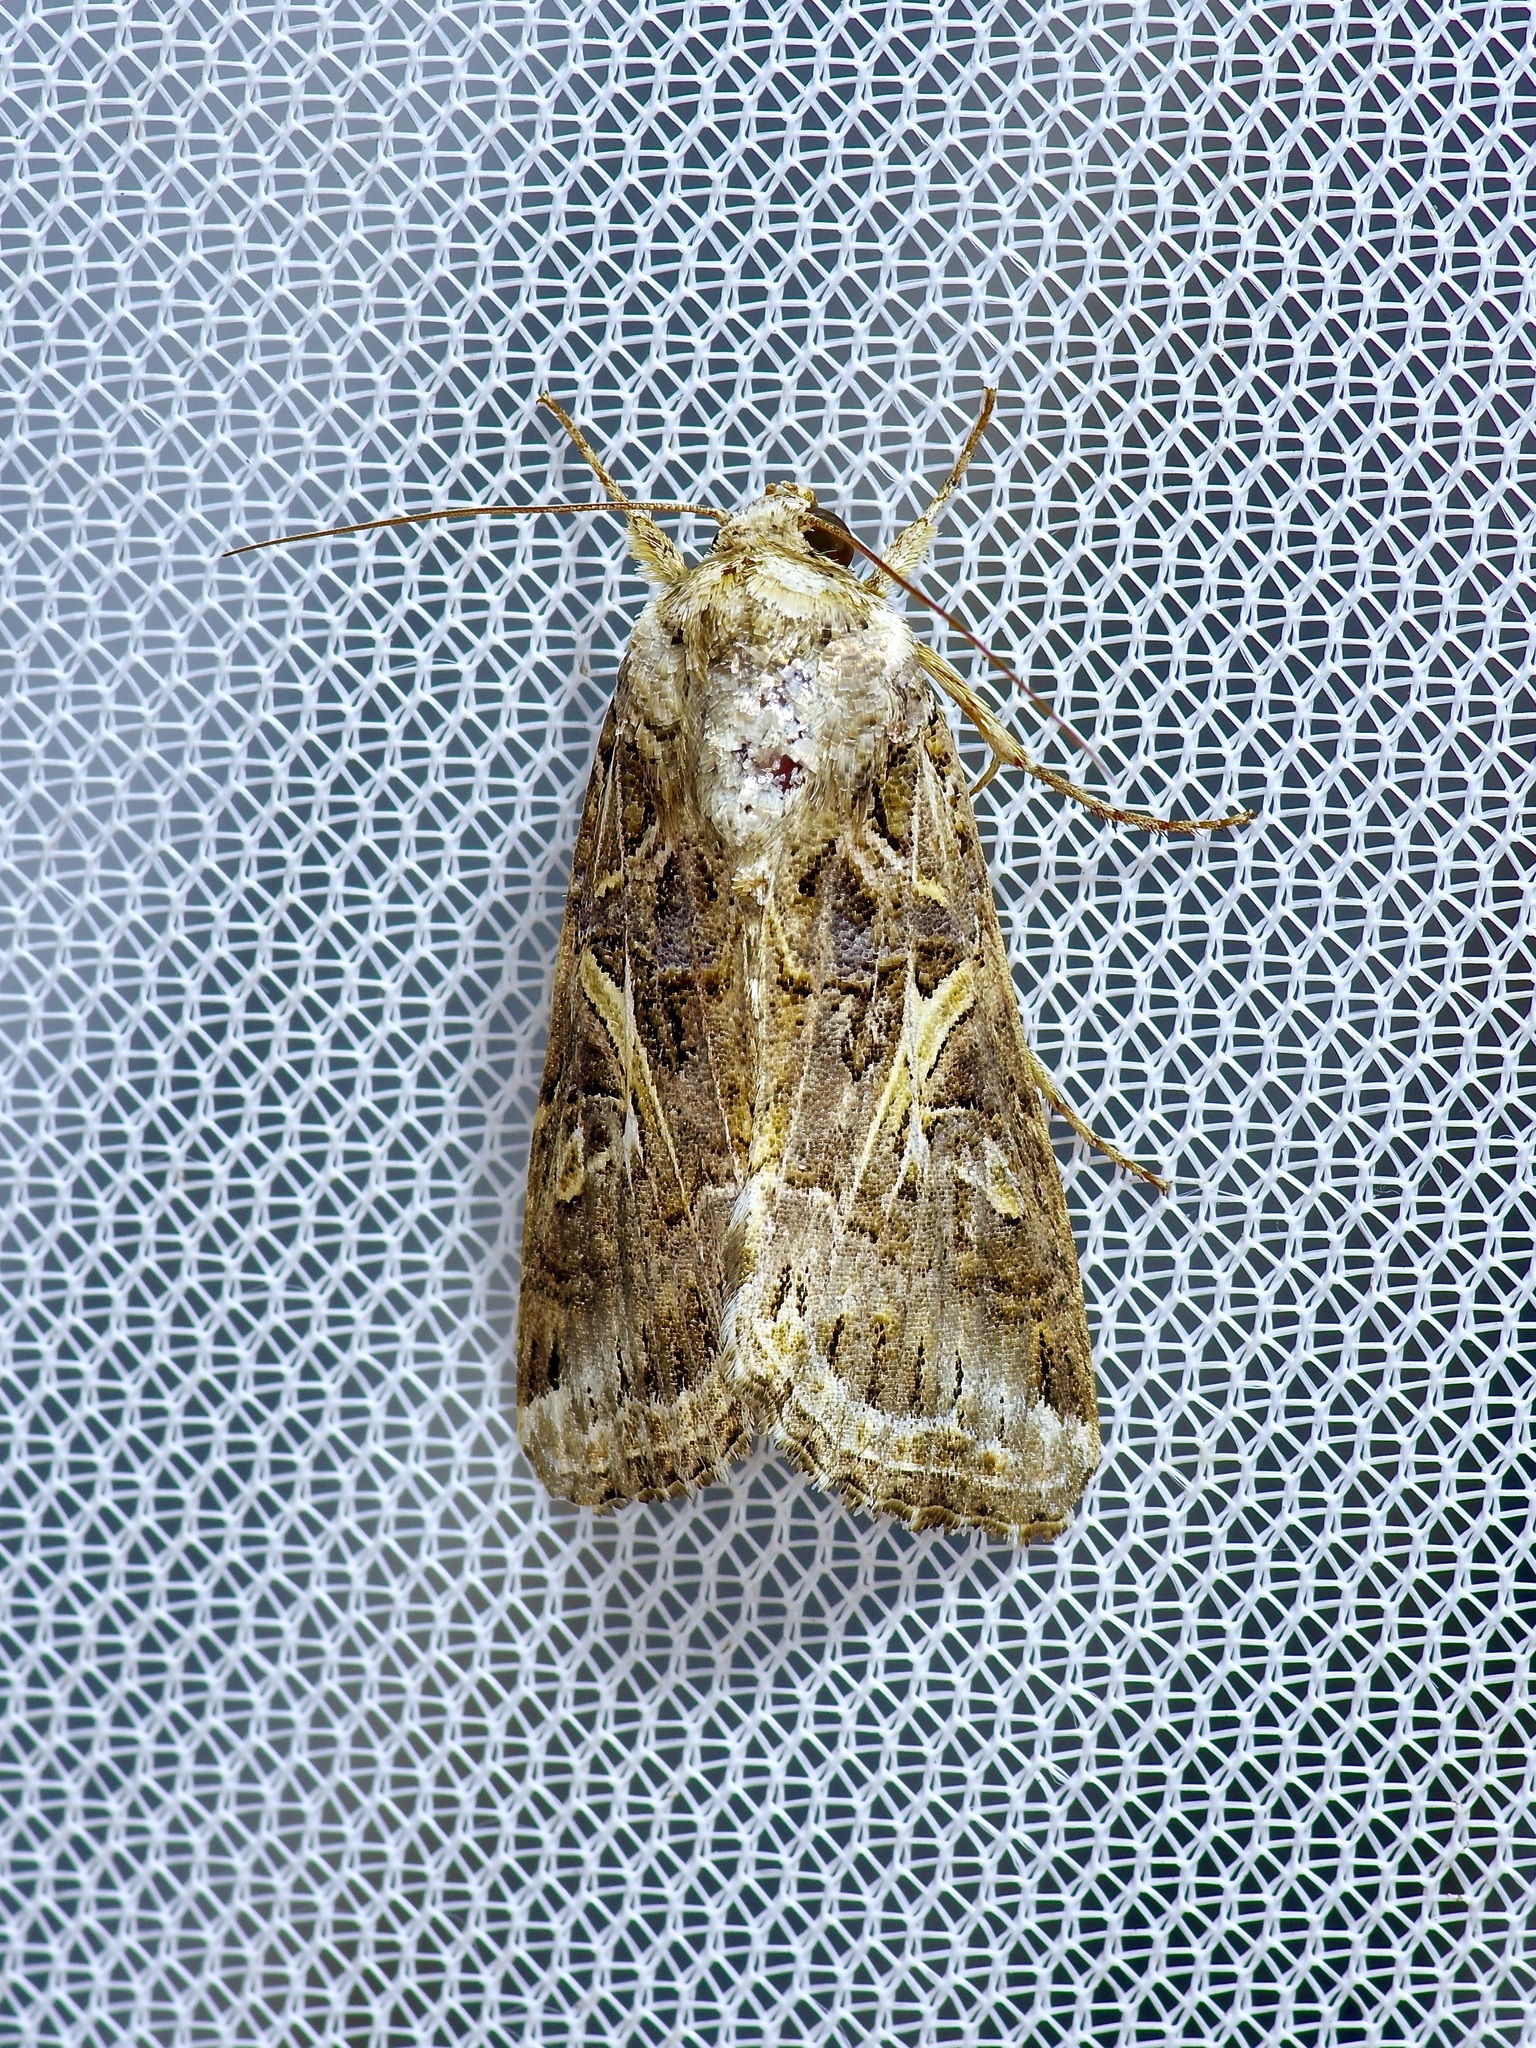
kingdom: Animalia
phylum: Arthropoda
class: Insecta
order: Lepidoptera
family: Noctuidae
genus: Spodoptera
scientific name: Spodoptera ornithogalli
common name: Yellow-striped armyworm
